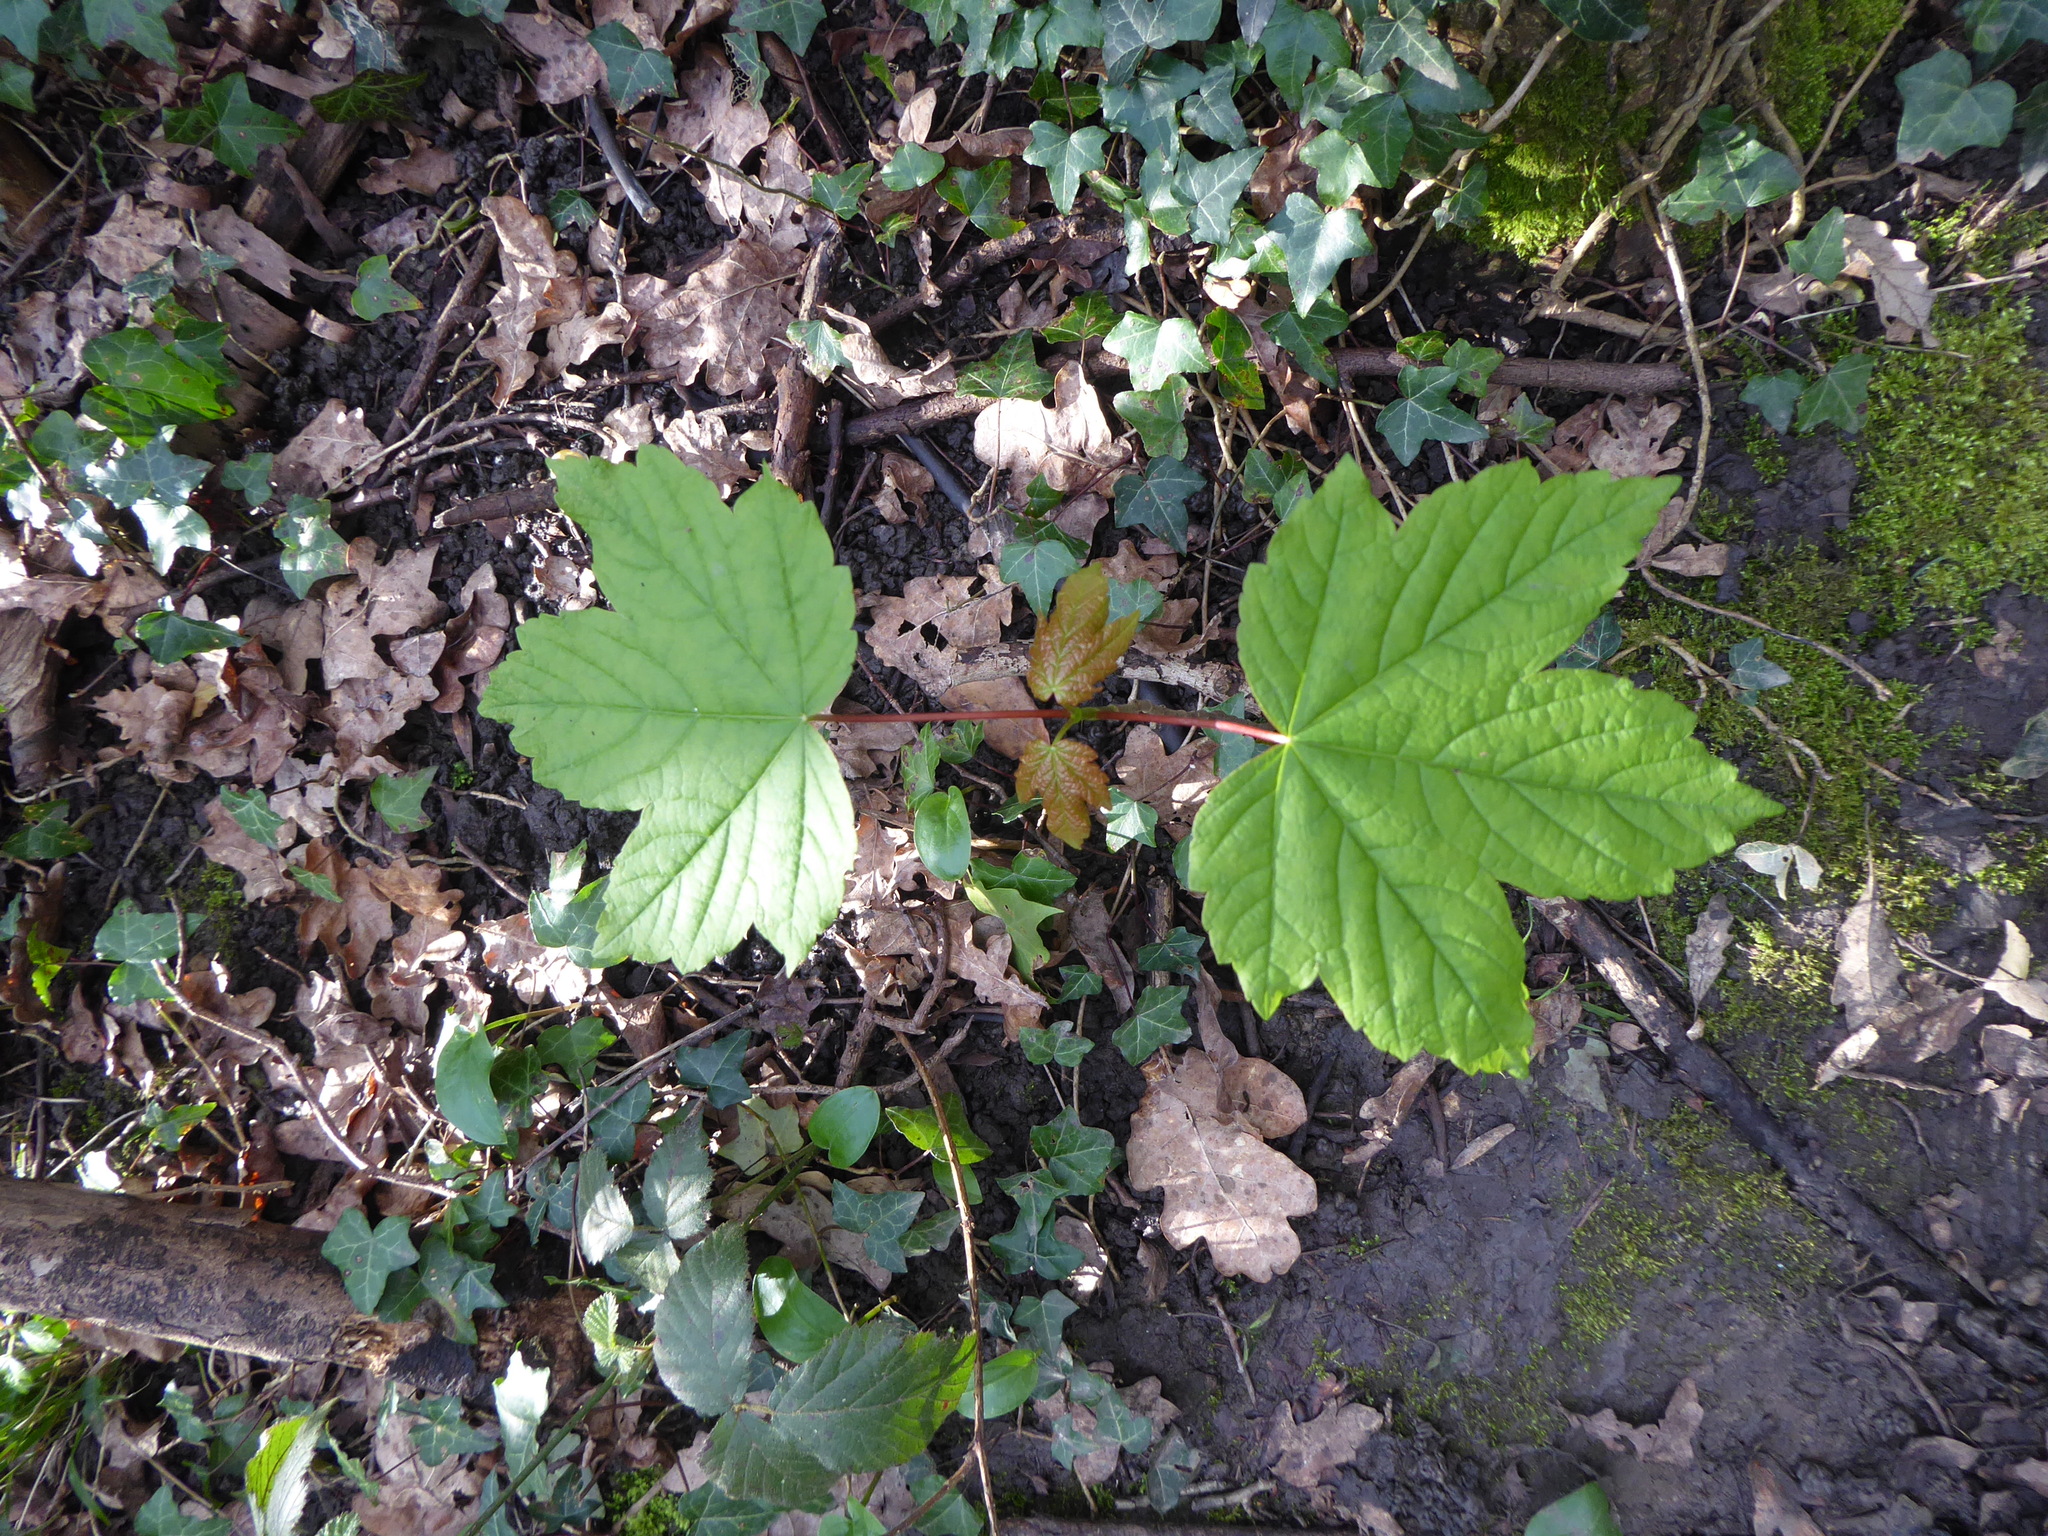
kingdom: Plantae
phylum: Tracheophyta
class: Magnoliopsida
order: Sapindales
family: Sapindaceae
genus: Acer
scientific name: Acer pseudoplatanus
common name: Sycamore
